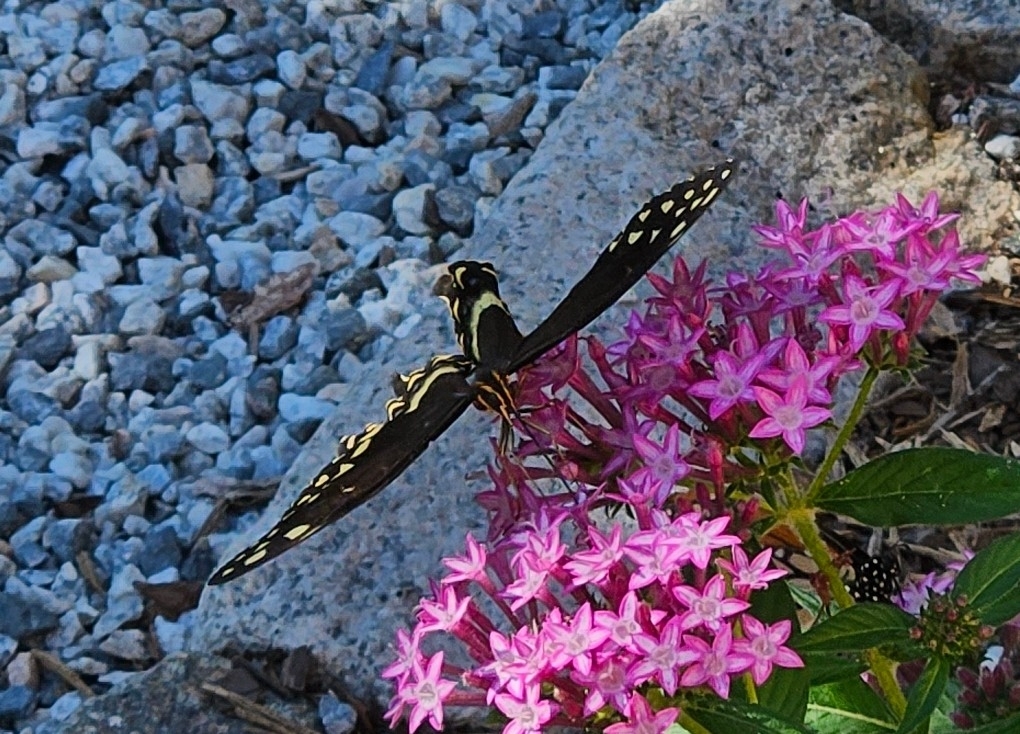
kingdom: Animalia
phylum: Arthropoda
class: Insecta
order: Lepidoptera
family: Papilionidae
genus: Papilio
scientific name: Papilio palamedes
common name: Palamedes swallowtail
